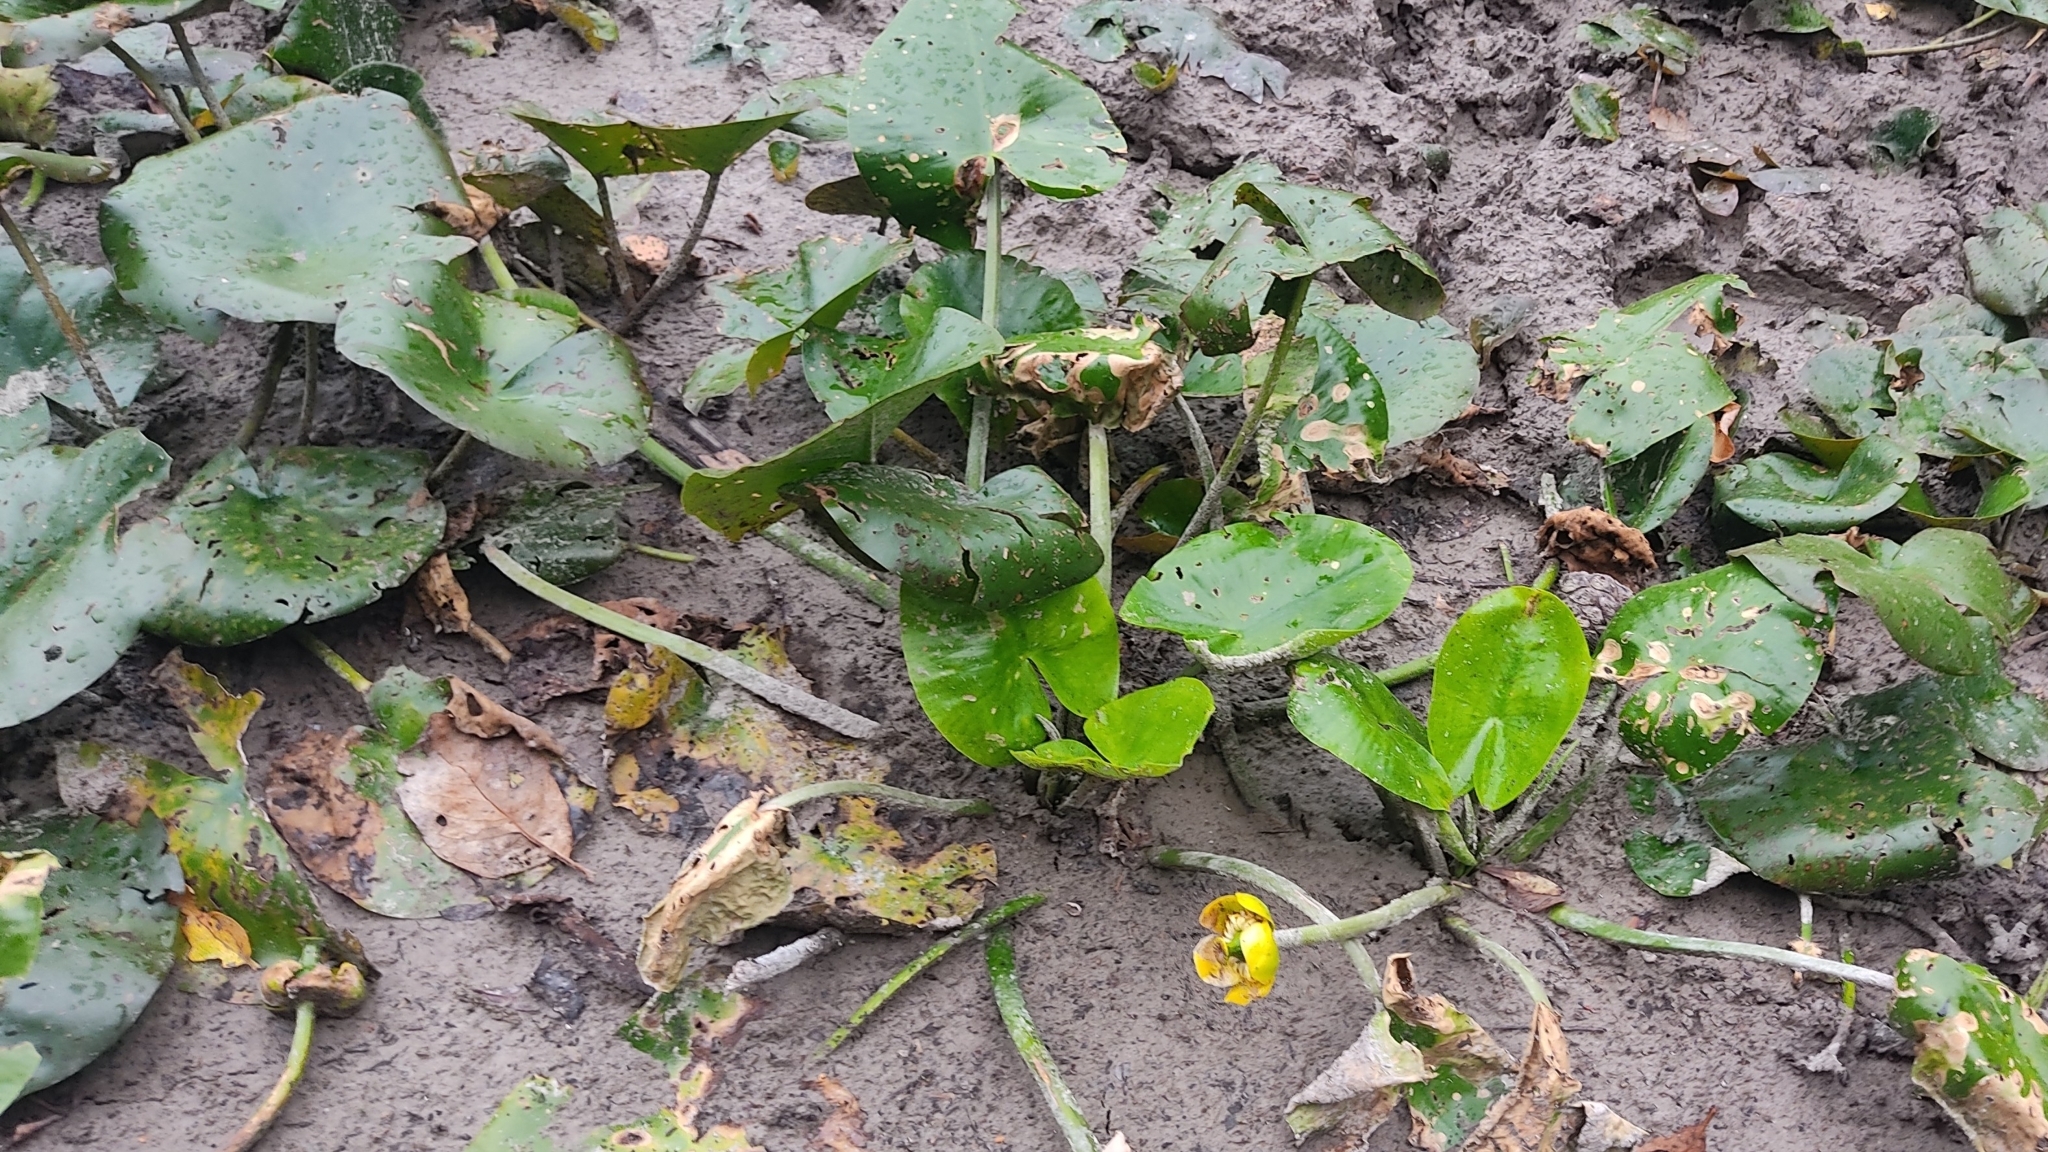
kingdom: Plantae
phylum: Tracheophyta
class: Magnoliopsida
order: Nymphaeales
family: Nymphaeaceae
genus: Nuphar
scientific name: Nuphar lutea
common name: Yellow water-lily
